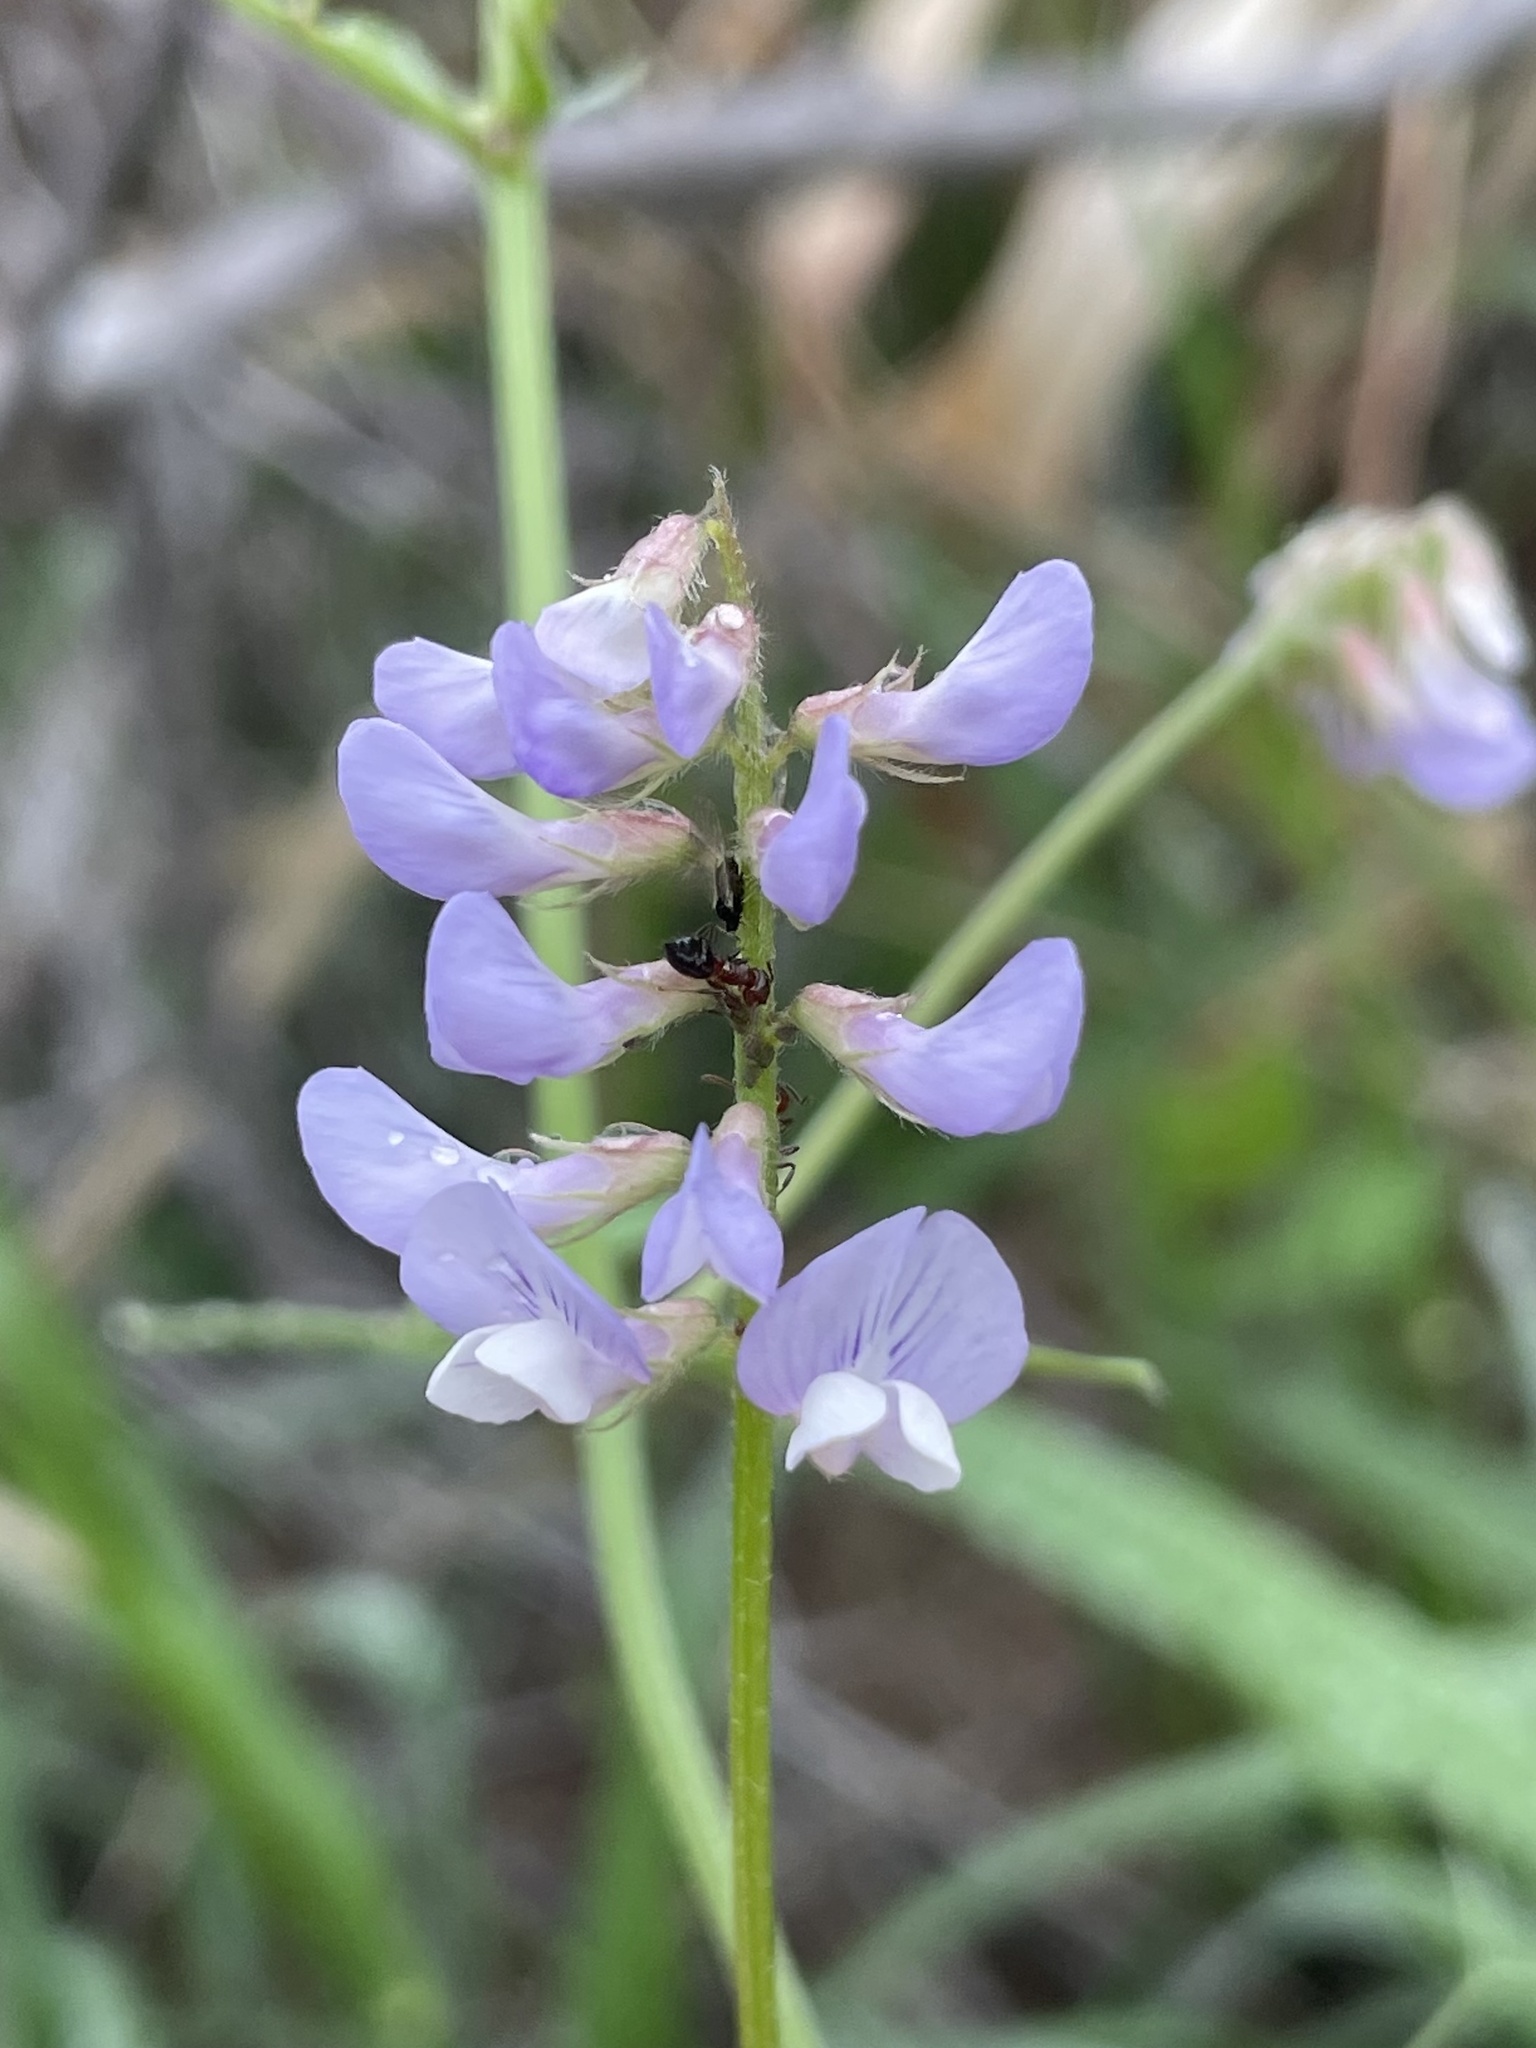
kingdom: Plantae
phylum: Tracheophyta
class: Magnoliopsida
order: Fabales
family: Fabaceae
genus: Vicia
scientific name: Vicia ludoviciana
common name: Louisiana vetch
